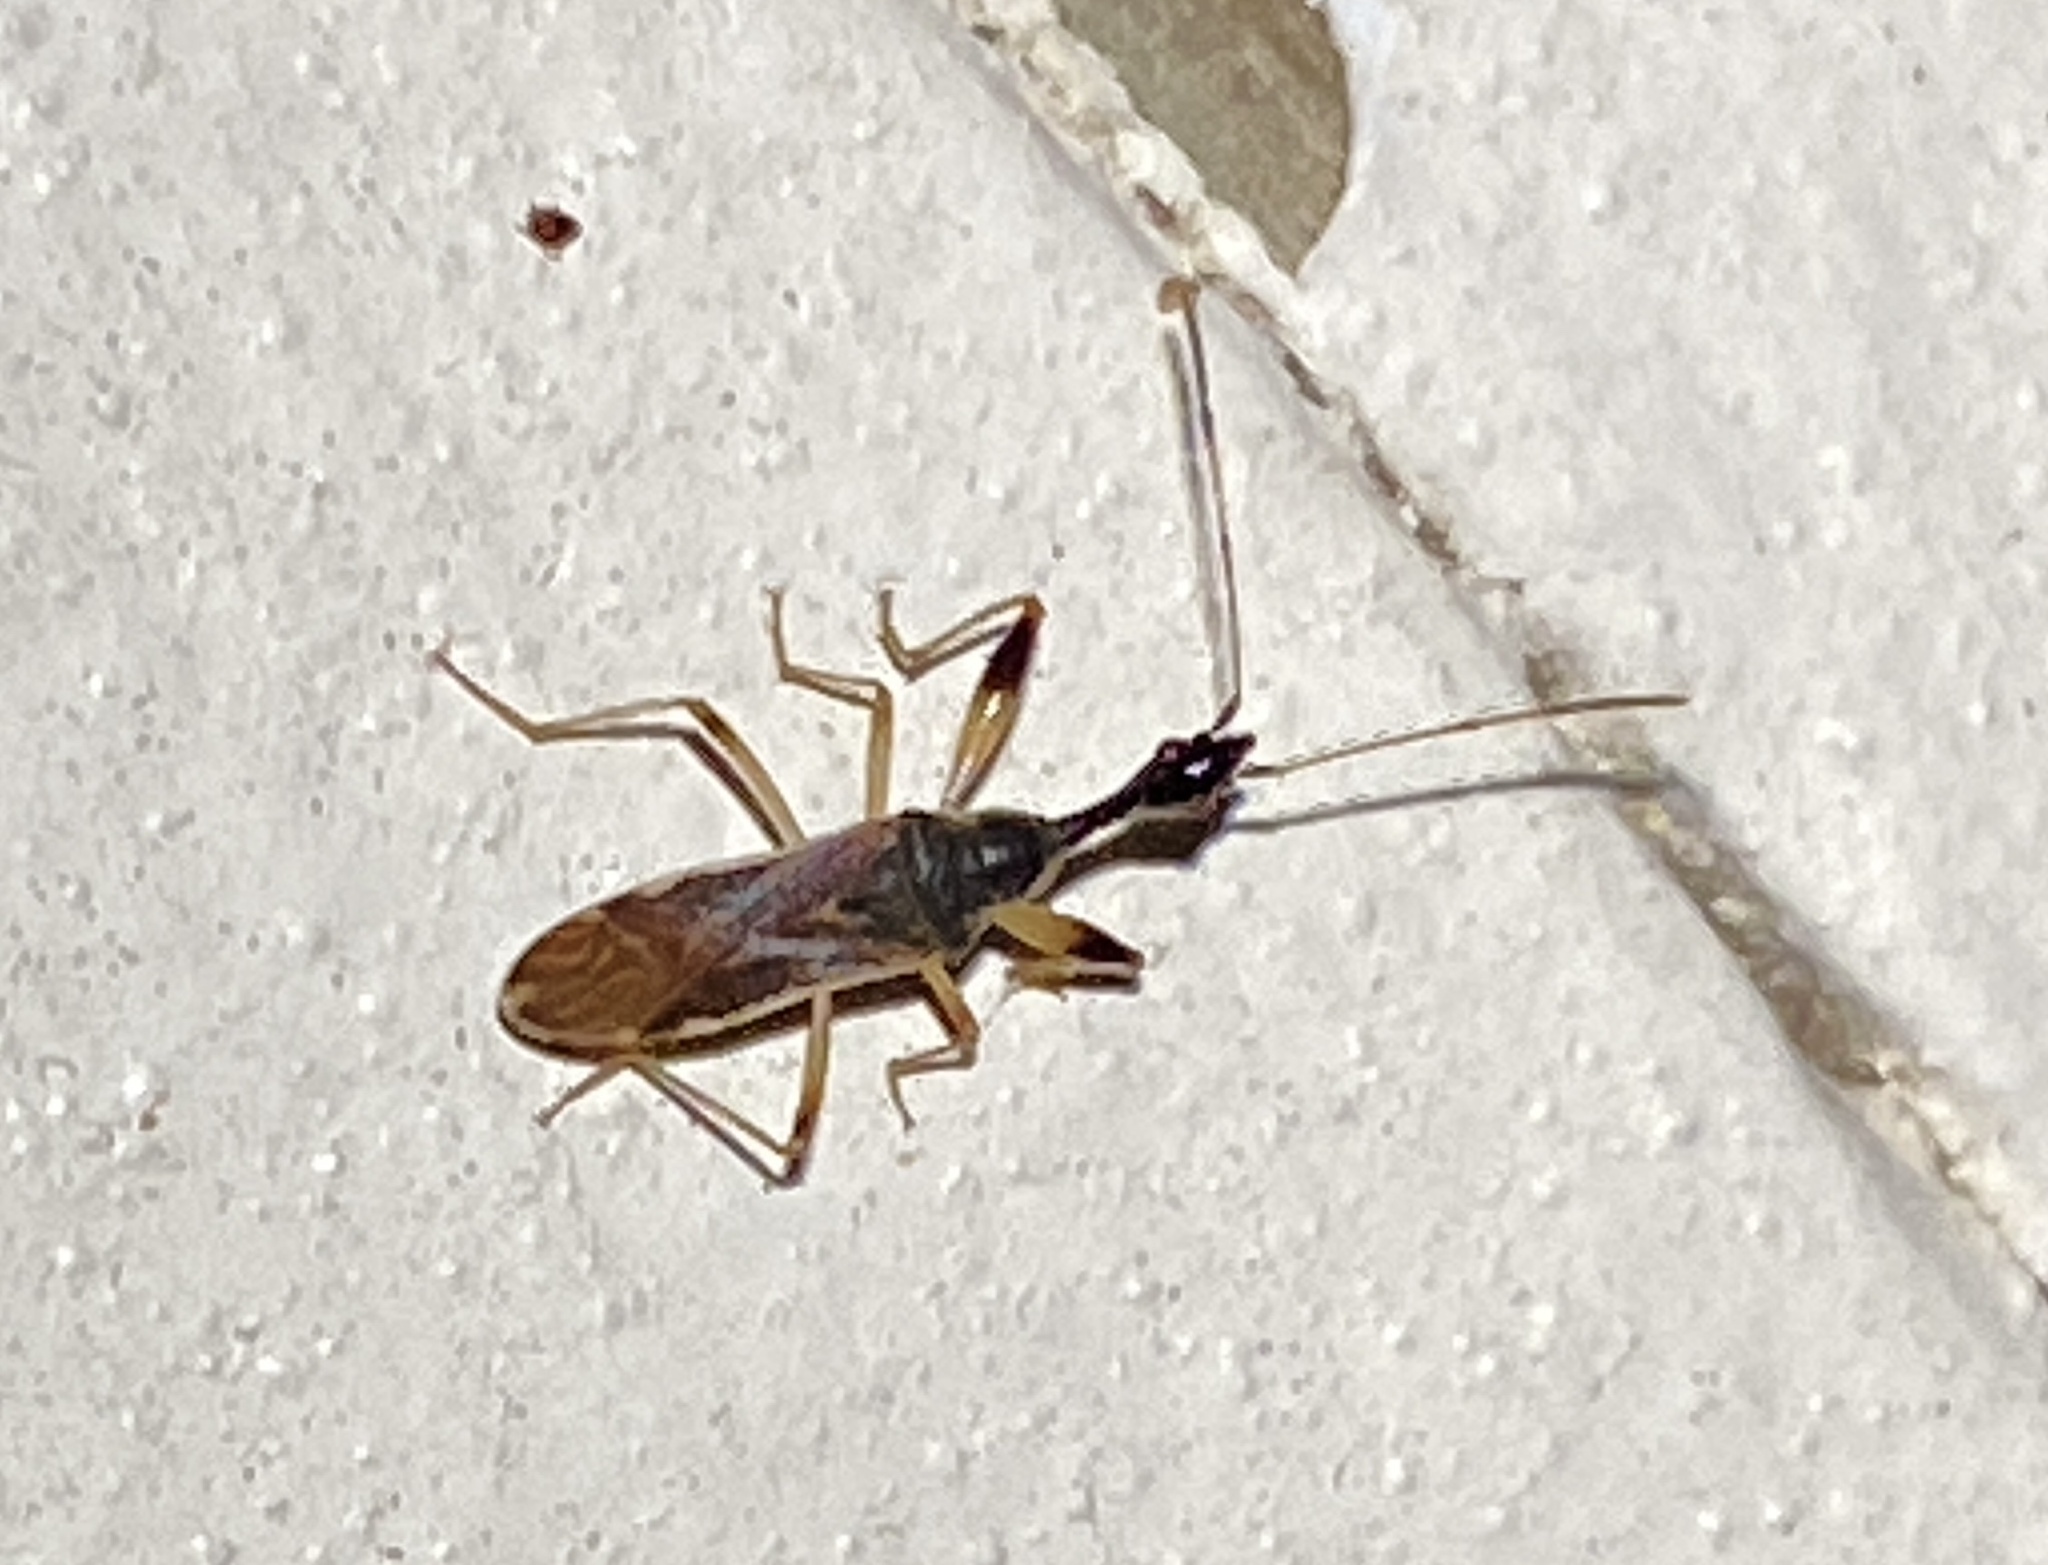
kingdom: Animalia
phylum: Arthropoda
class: Insecta
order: Hemiptera
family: Rhyparochromidae
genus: Myodocha
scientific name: Myodocha serripes
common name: Long-necked seed bug
